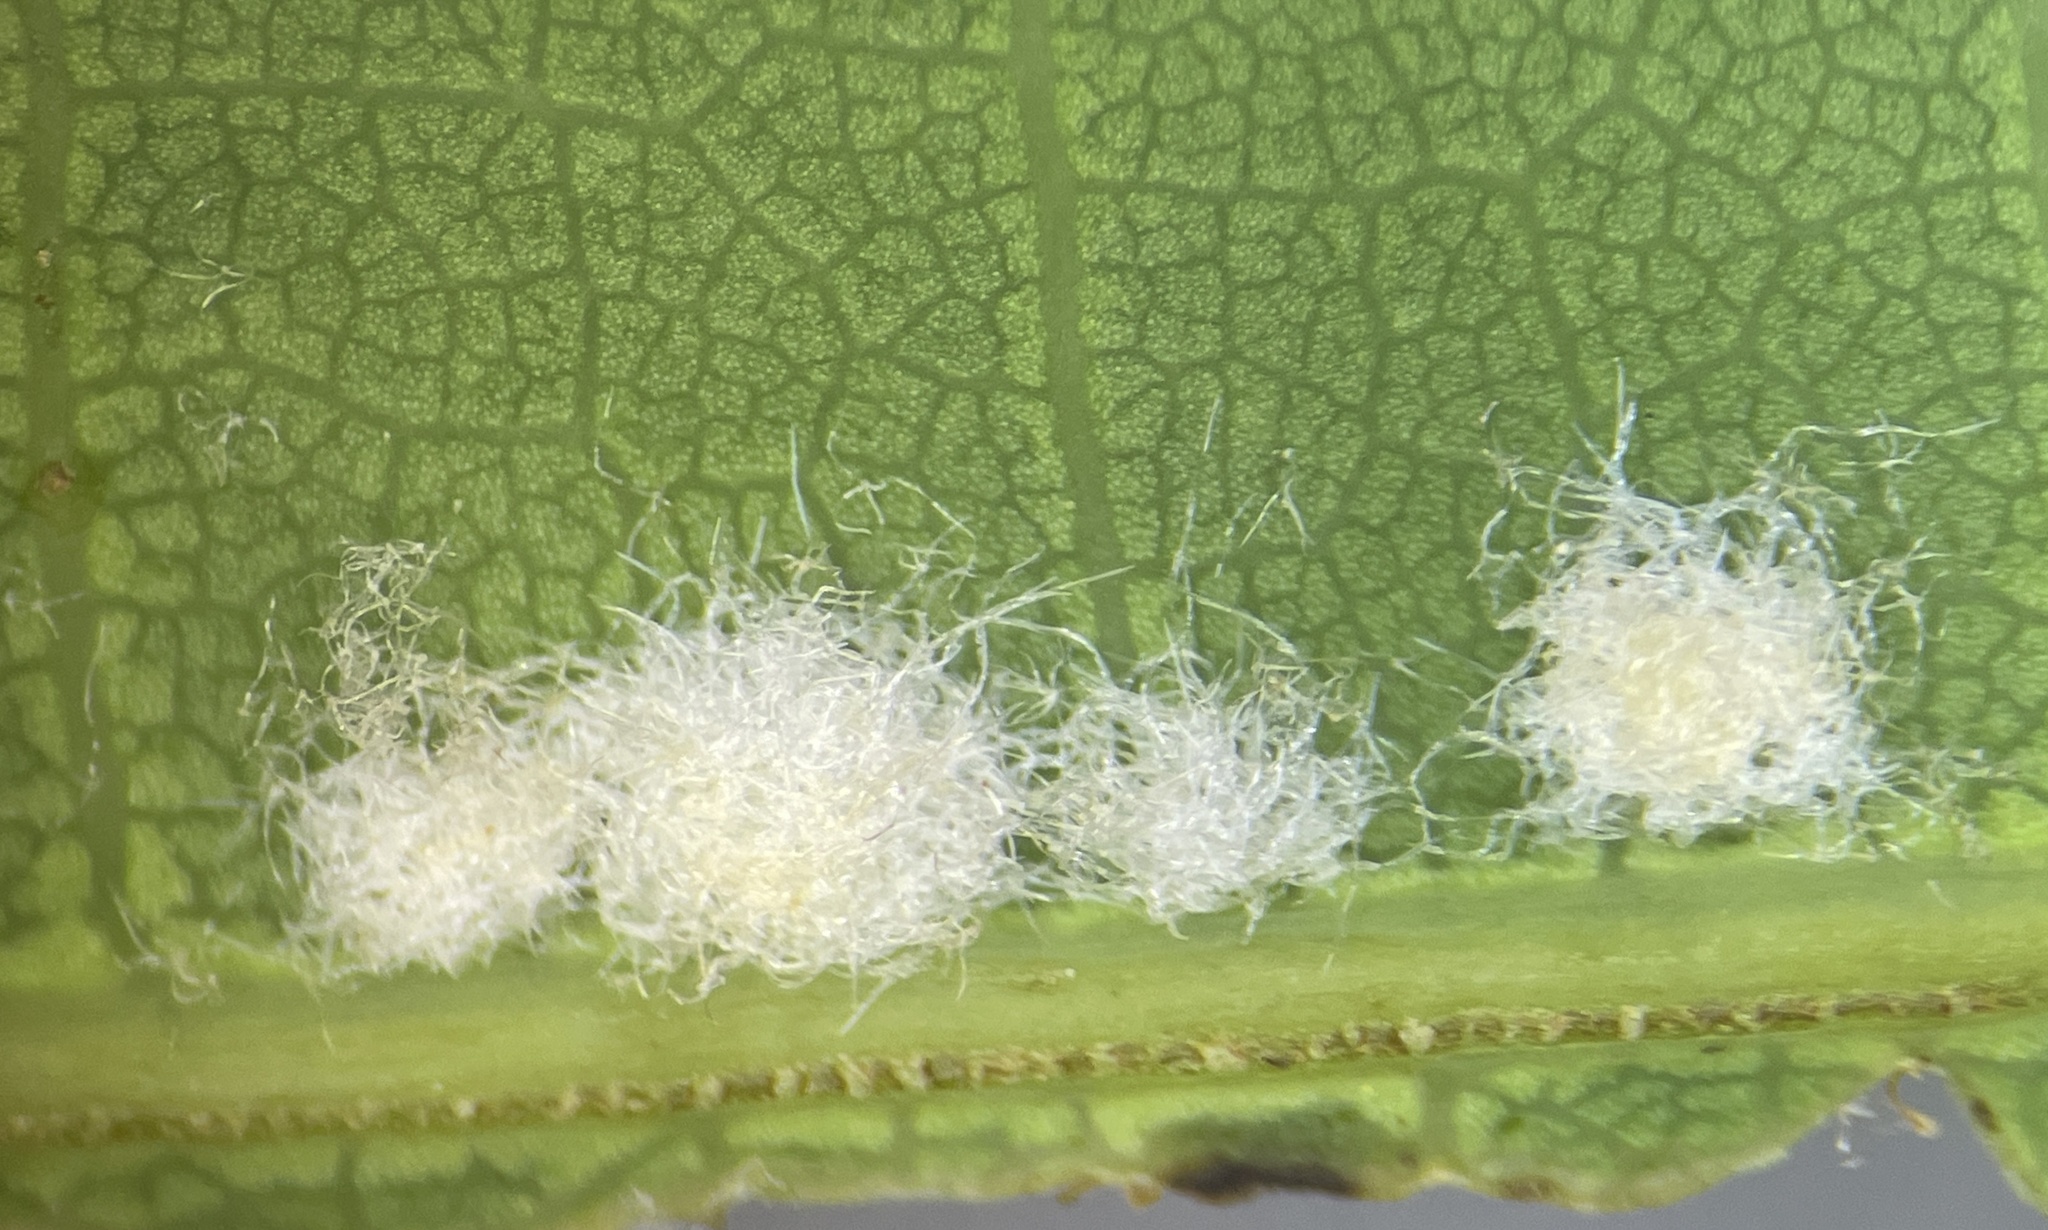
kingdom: Animalia
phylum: Arthropoda
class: Insecta
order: Hymenoptera
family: Cynipidae
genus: Neuroterus
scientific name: Neuroterus quercusverrucarum
